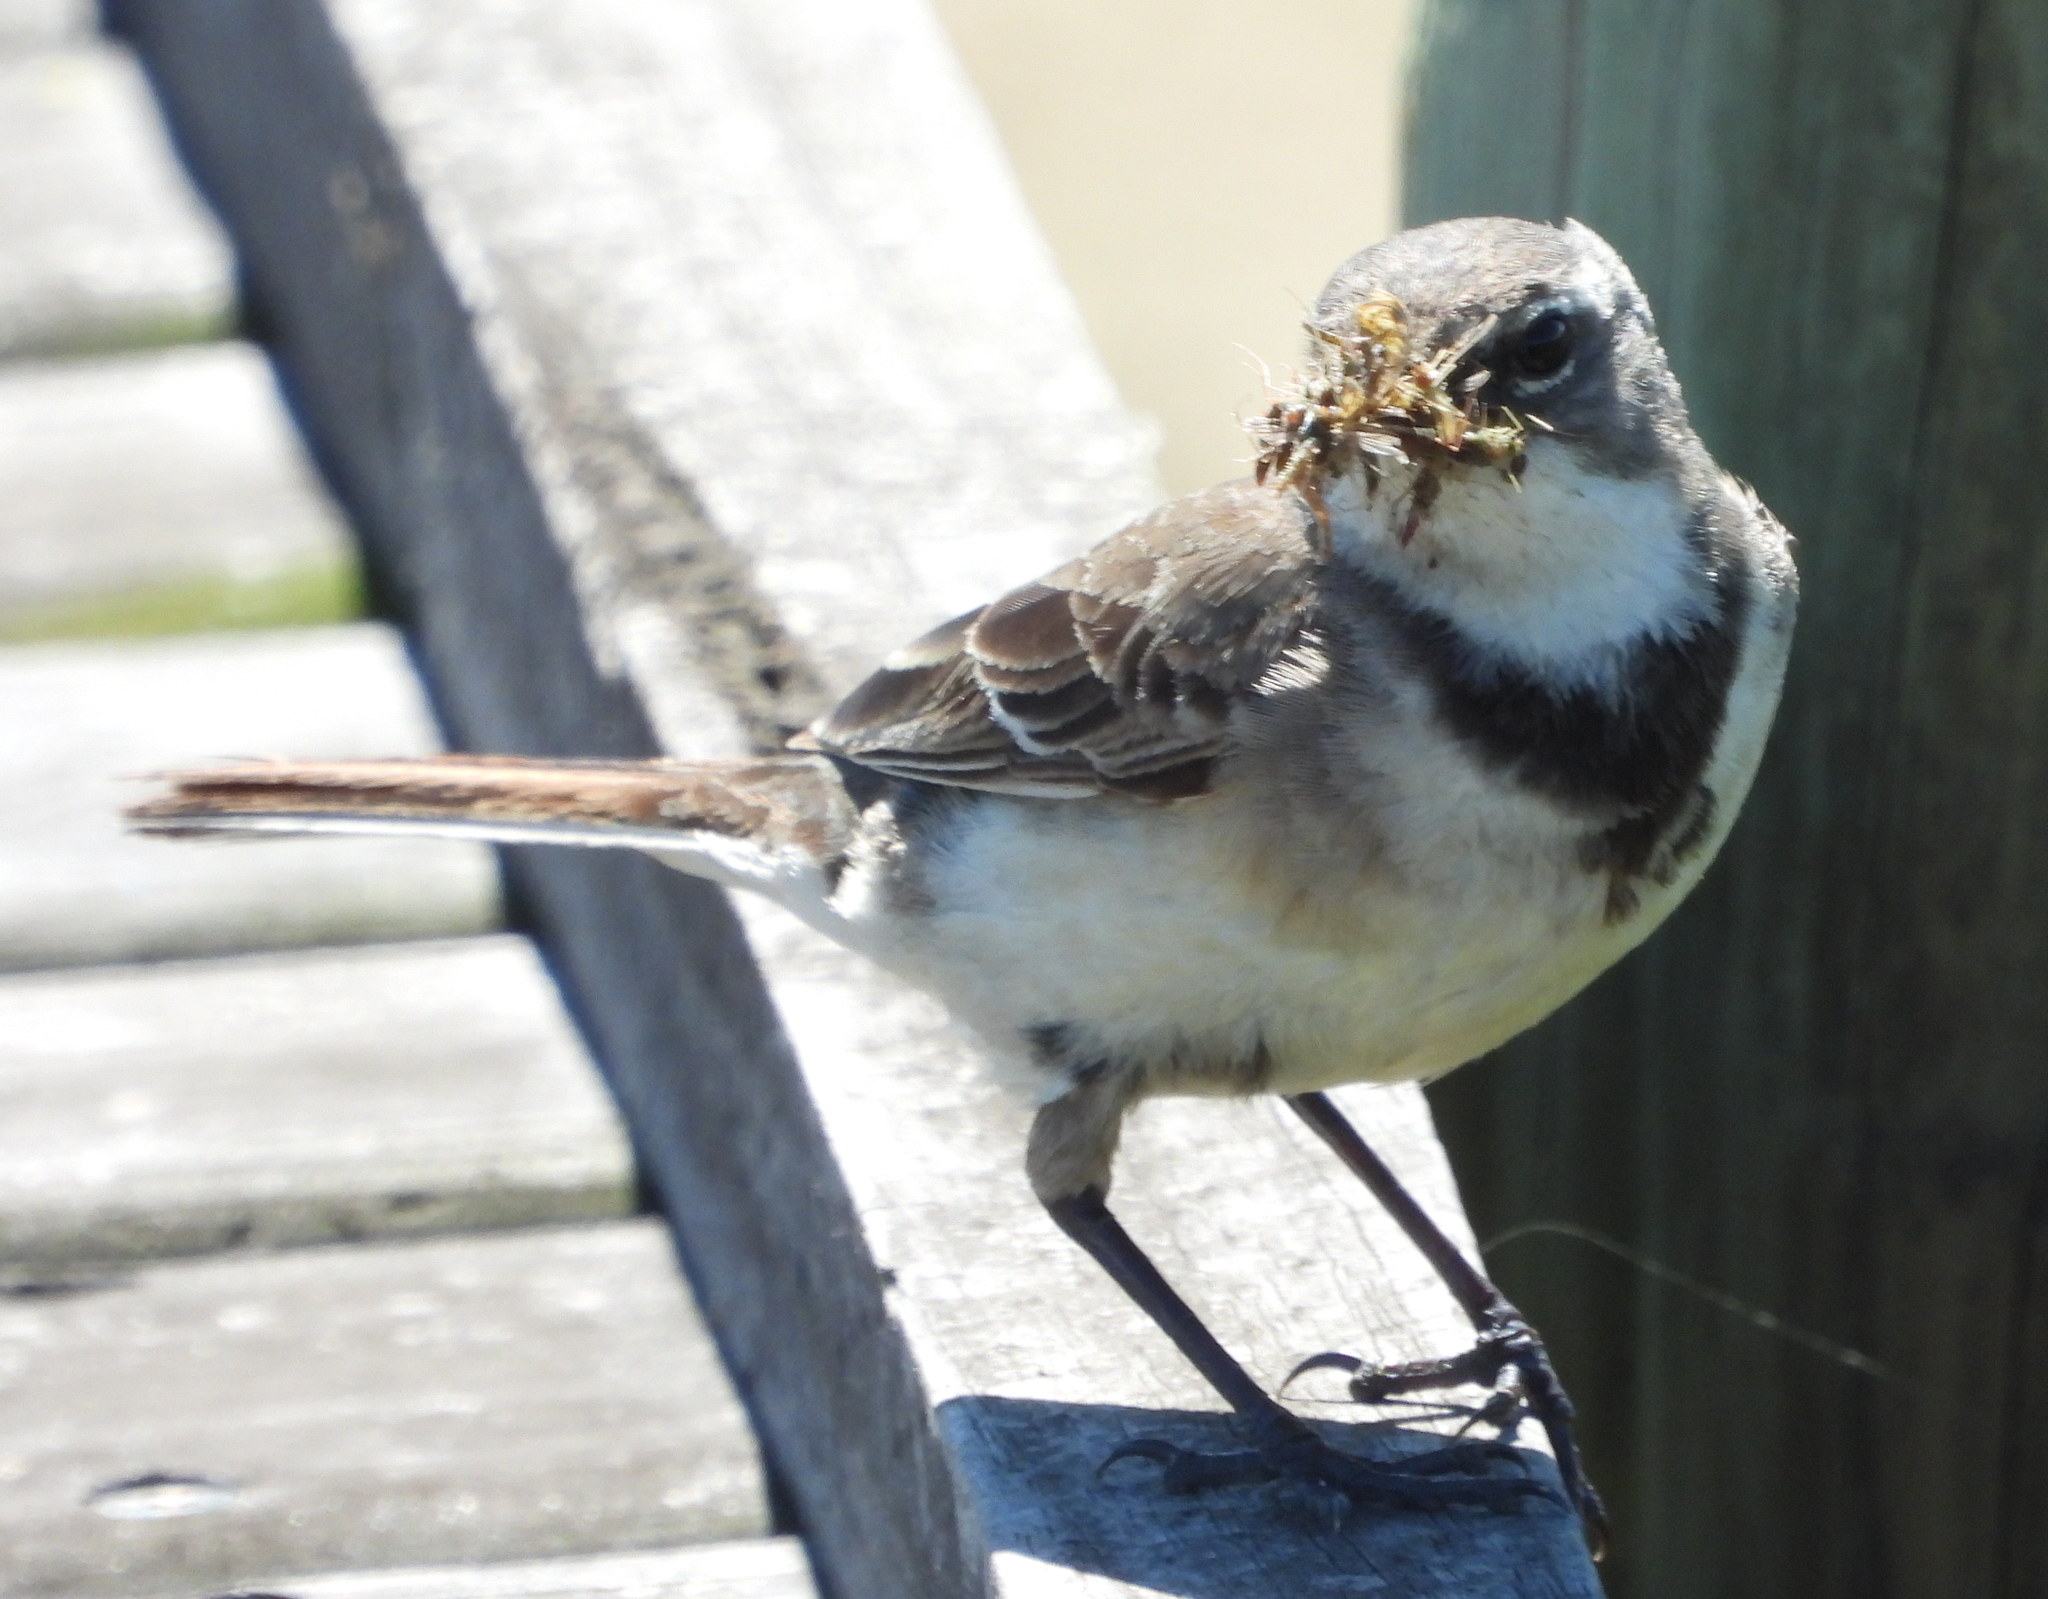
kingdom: Animalia
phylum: Chordata
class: Aves
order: Passeriformes
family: Motacillidae
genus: Motacilla
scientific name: Motacilla capensis
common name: Cape wagtail
